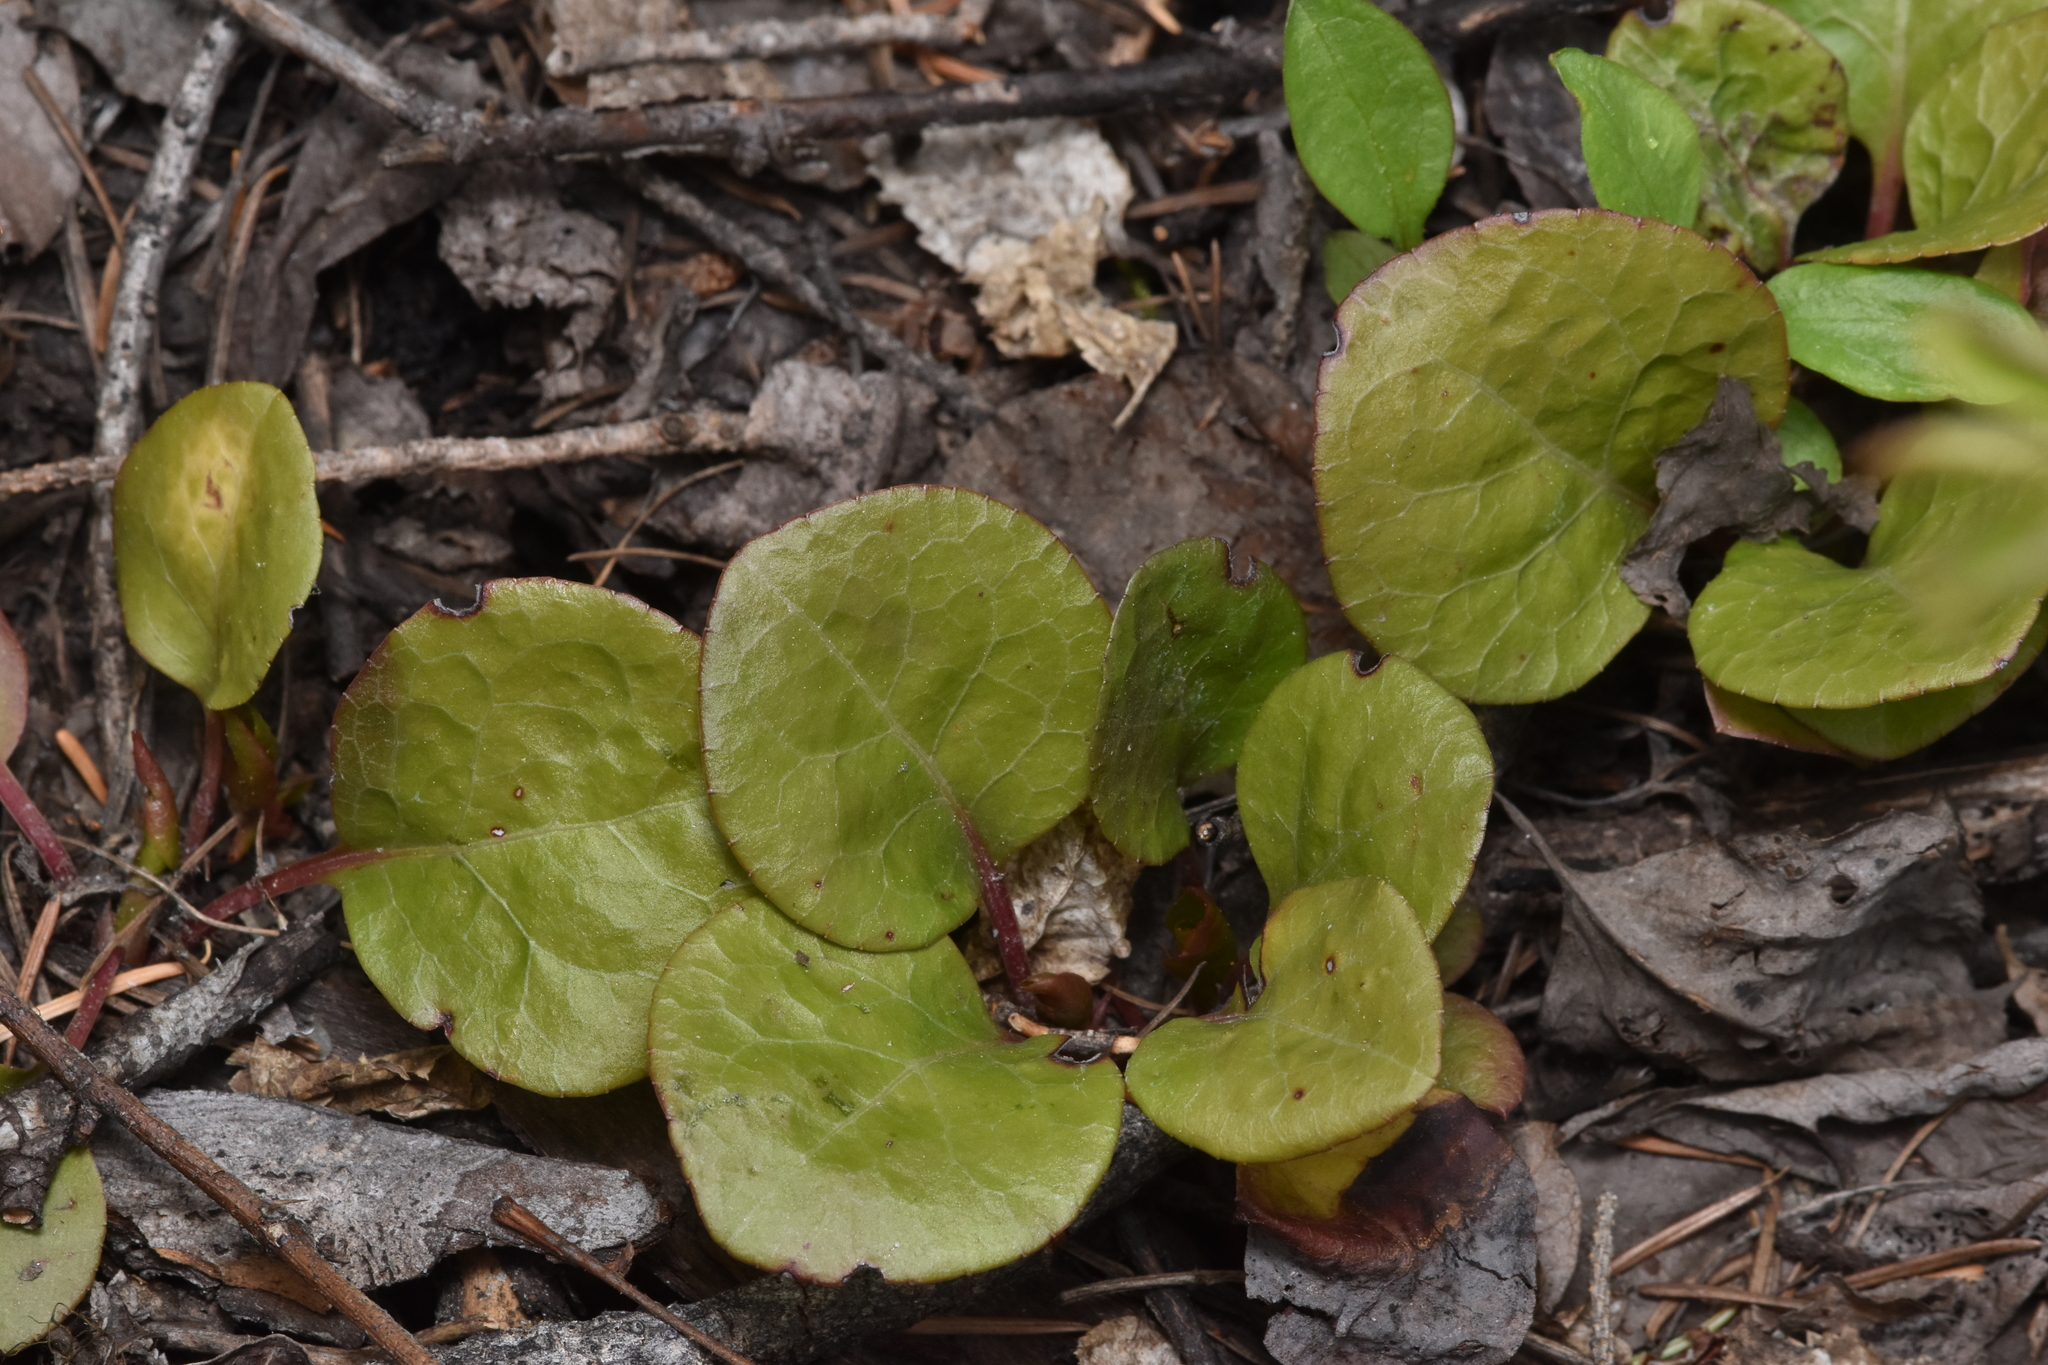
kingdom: Plantae
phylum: Tracheophyta
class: Magnoliopsida
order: Ericales
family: Ericaceae
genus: Pyrola
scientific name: Pyrola asarifolia
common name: Bog wintergreen
